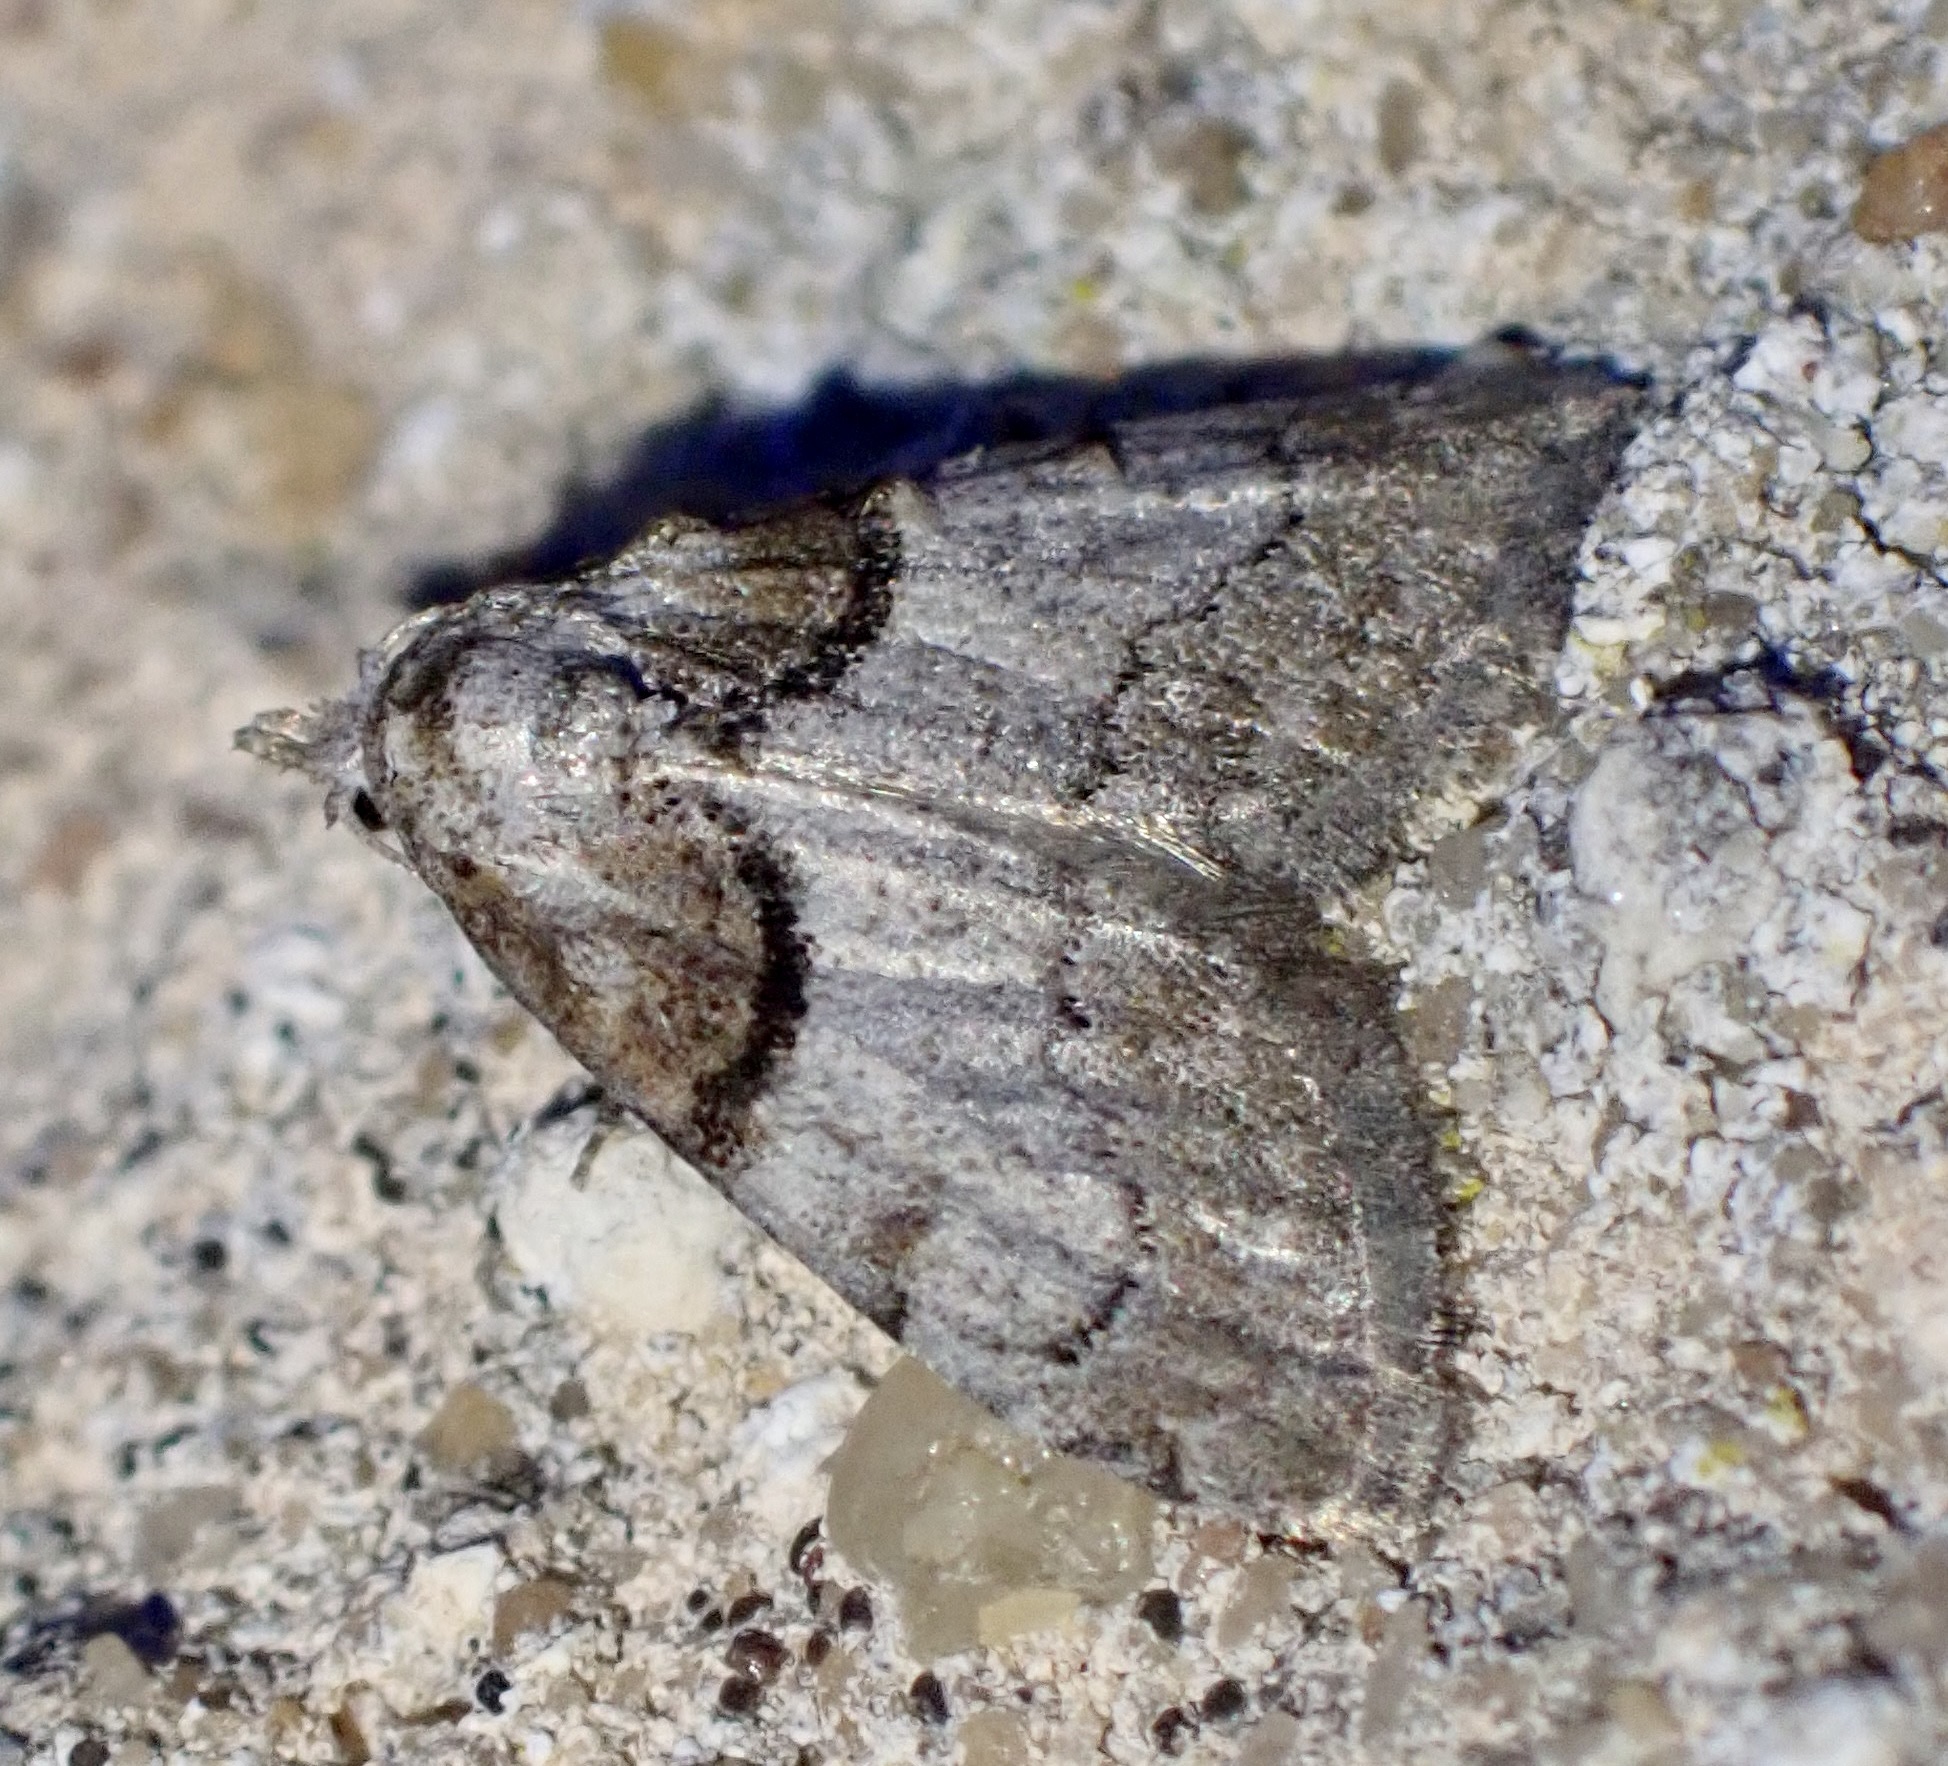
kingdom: Animalia
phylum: Arthropoda
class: Insecta
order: Lepidoptera
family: Nolidae
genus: Nola
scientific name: Nola cucullatella
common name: Short-cloaked moth
